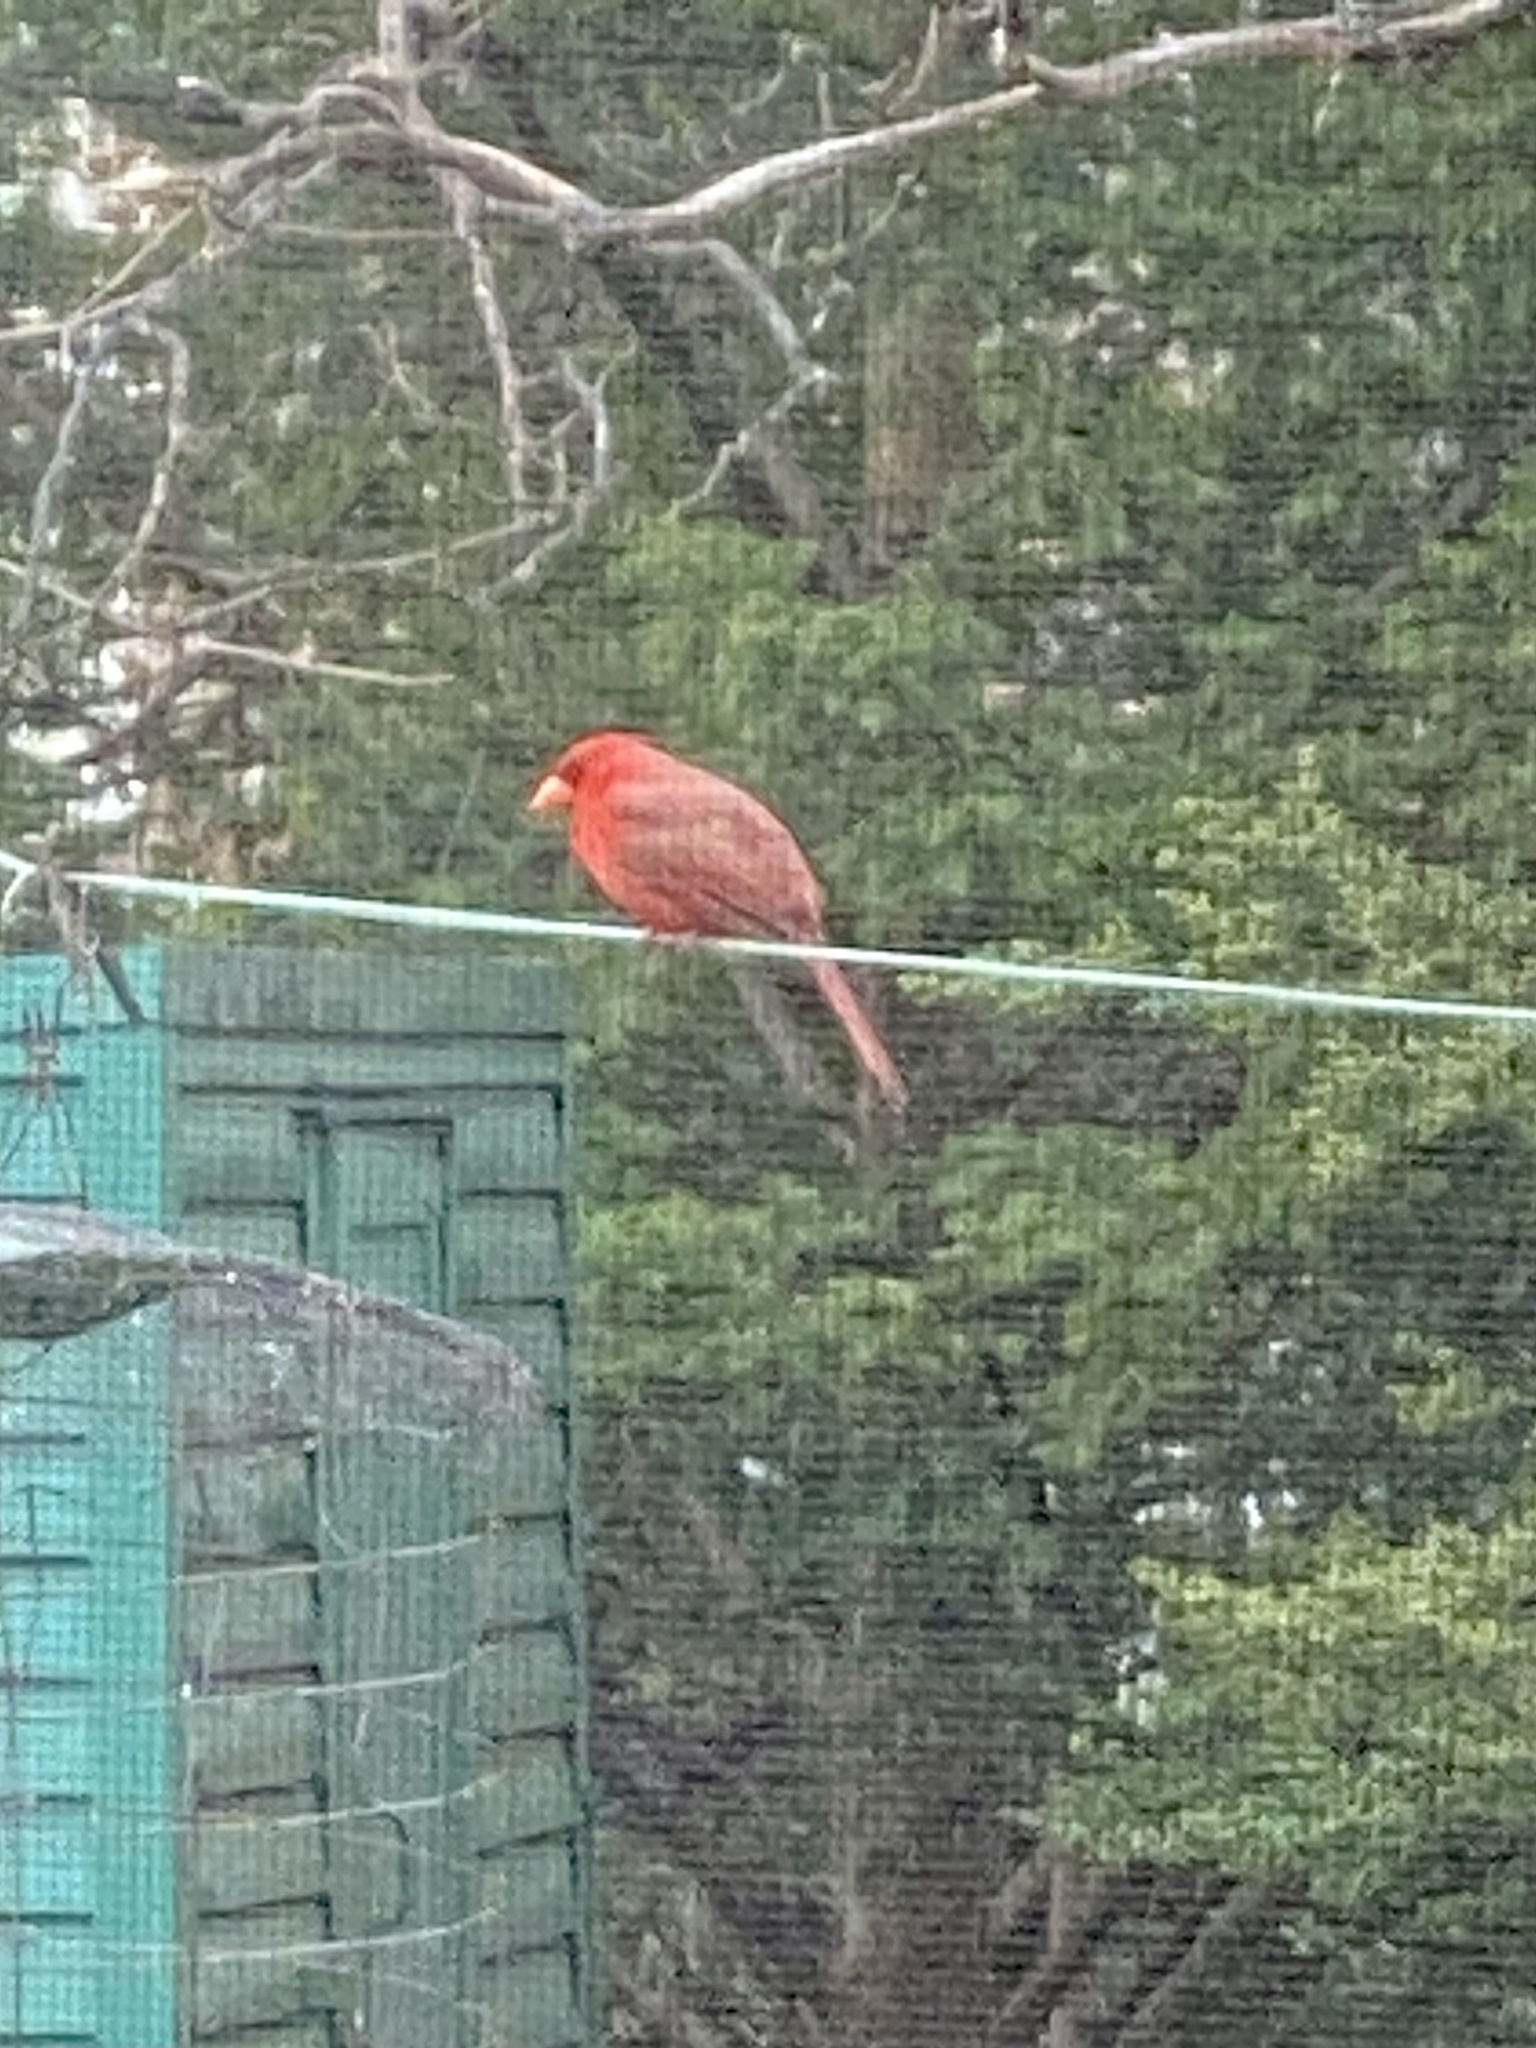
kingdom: Animalia
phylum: Chordata
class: Aves
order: Passeriformes
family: Cardinalidae
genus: Cardinalis
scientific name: Cardinalis cardinalis
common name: Northern cardinal
